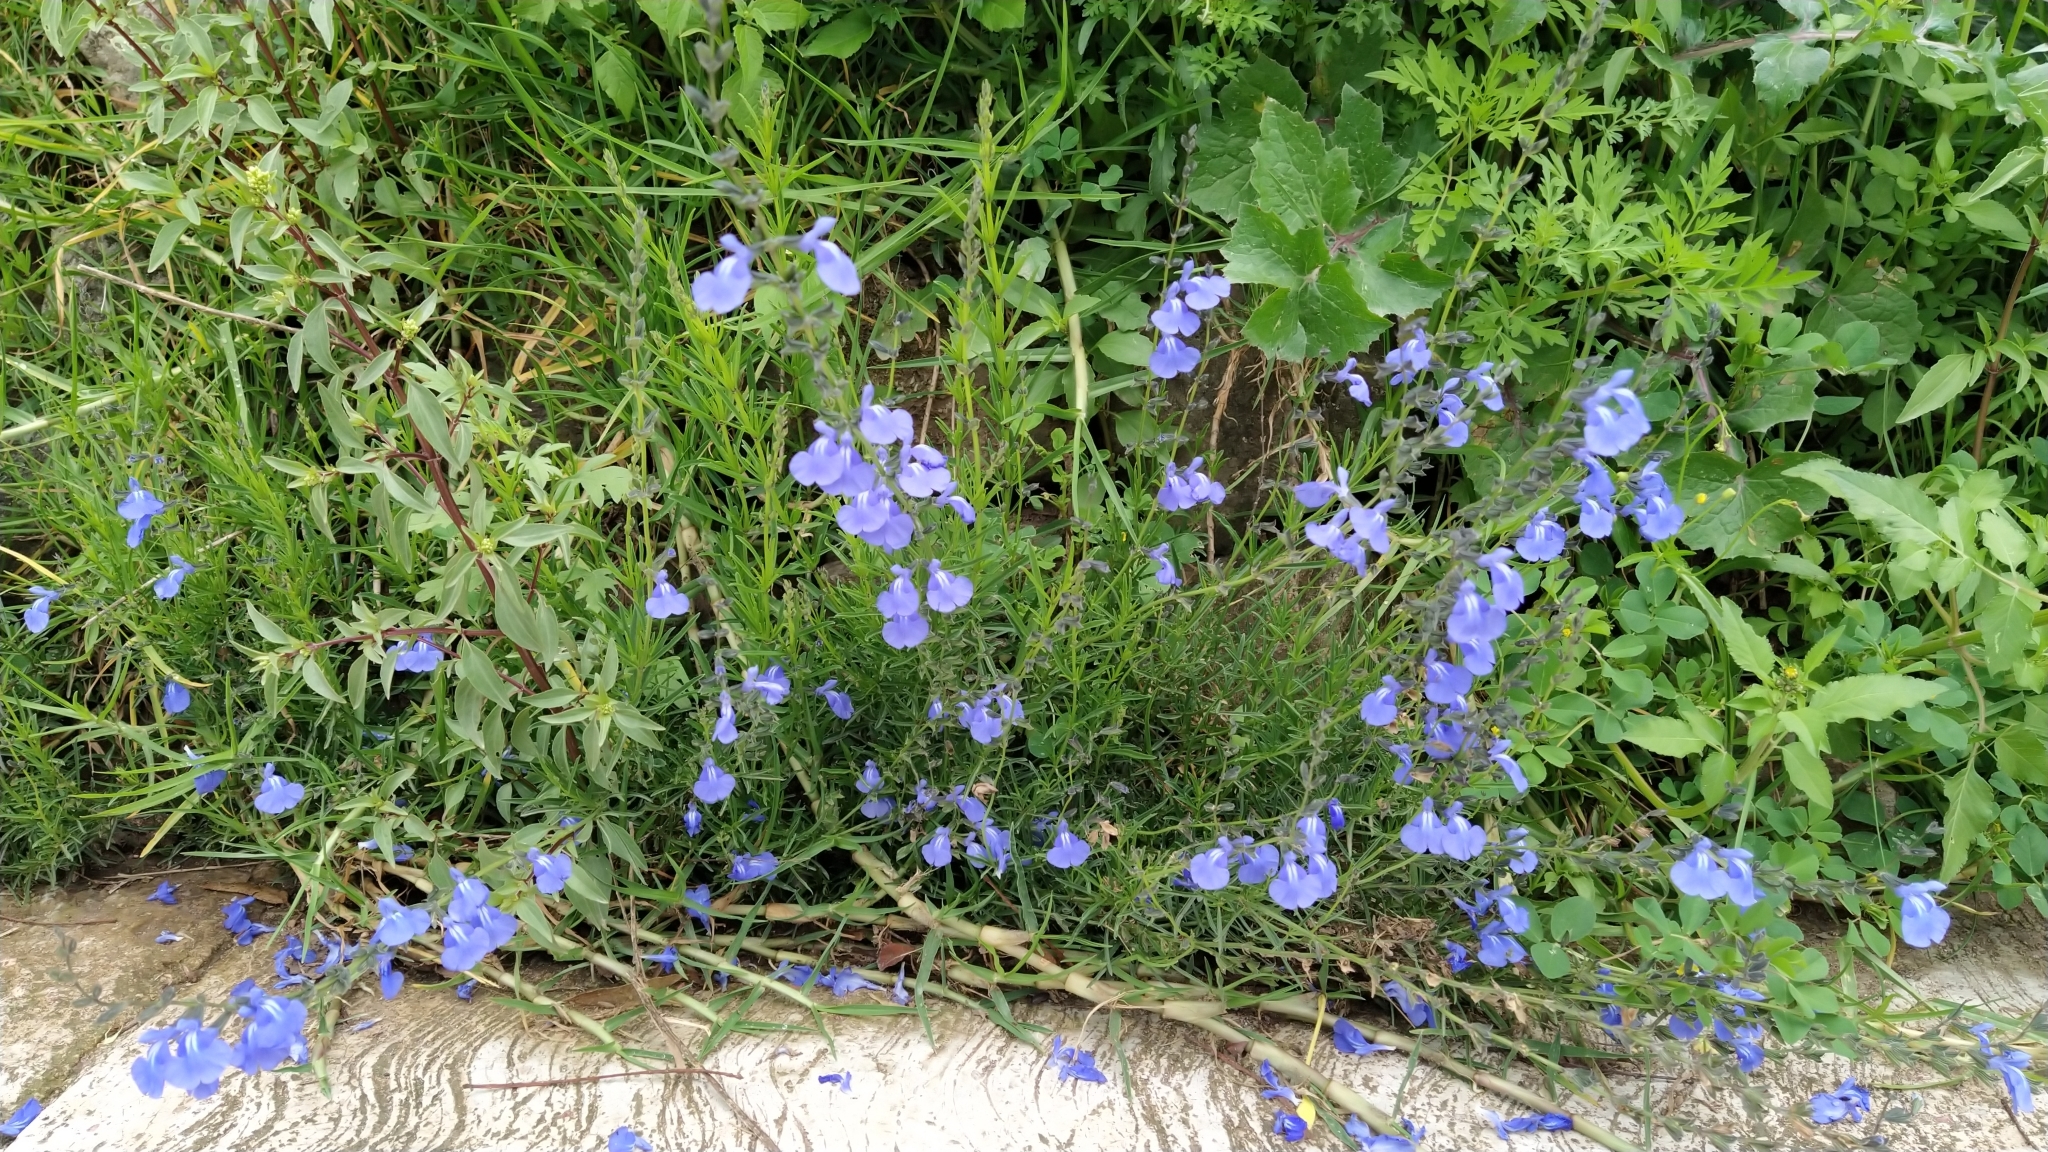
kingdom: Plantae
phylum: Tracheophyta
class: Magnoliopsida
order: Lamiales
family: Lamiaceae
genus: Salvia
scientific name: Salvia reptans
